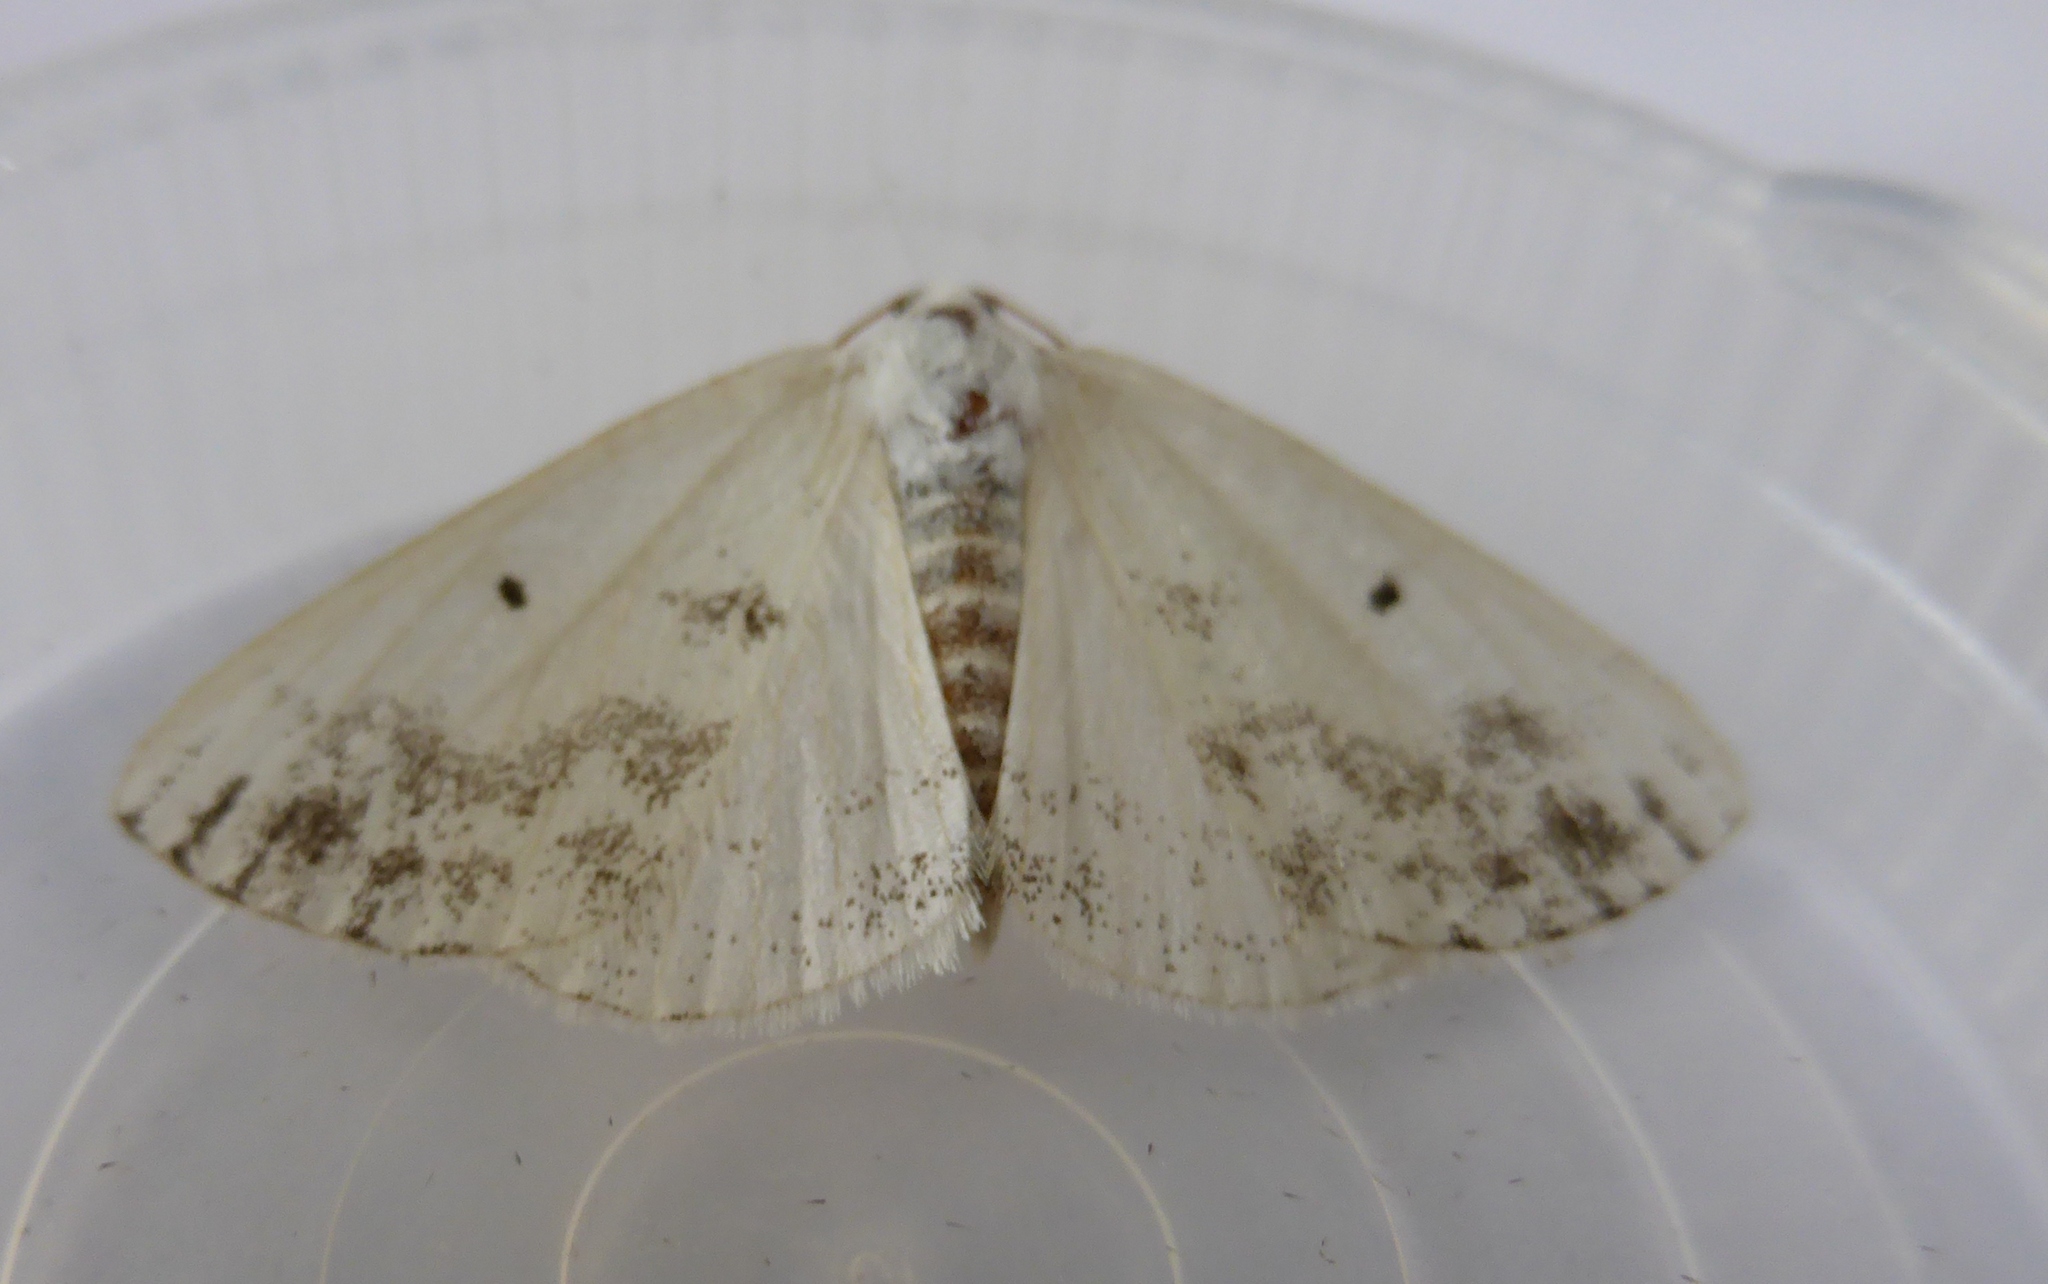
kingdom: Animalia
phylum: Arthropoda
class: Insecta
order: Lepidoptera
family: Geometridae
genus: Lomographa
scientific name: Lomographa temerata
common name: Clouded silver
